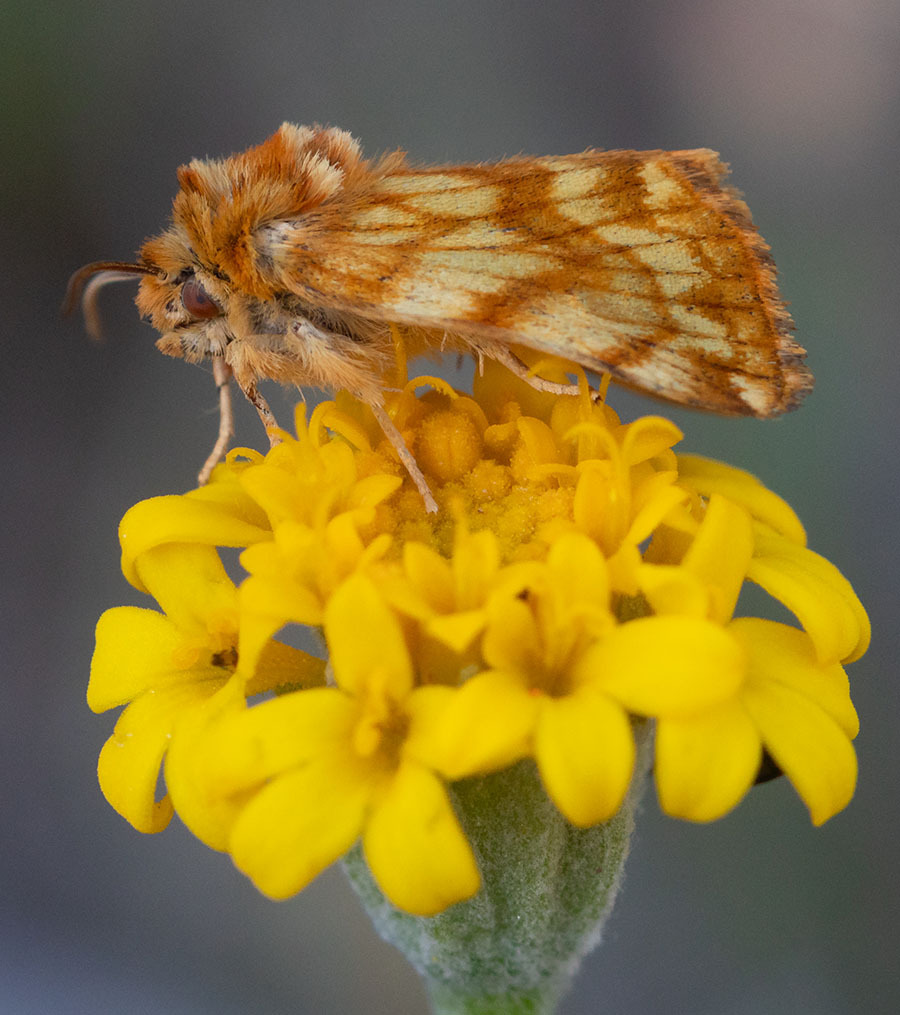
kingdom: Animalia
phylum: Arthropoda
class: Insecta
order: Lepidoptera
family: Noctuidae
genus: Xanthothrix
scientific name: Xanthothrix neumoegeni
